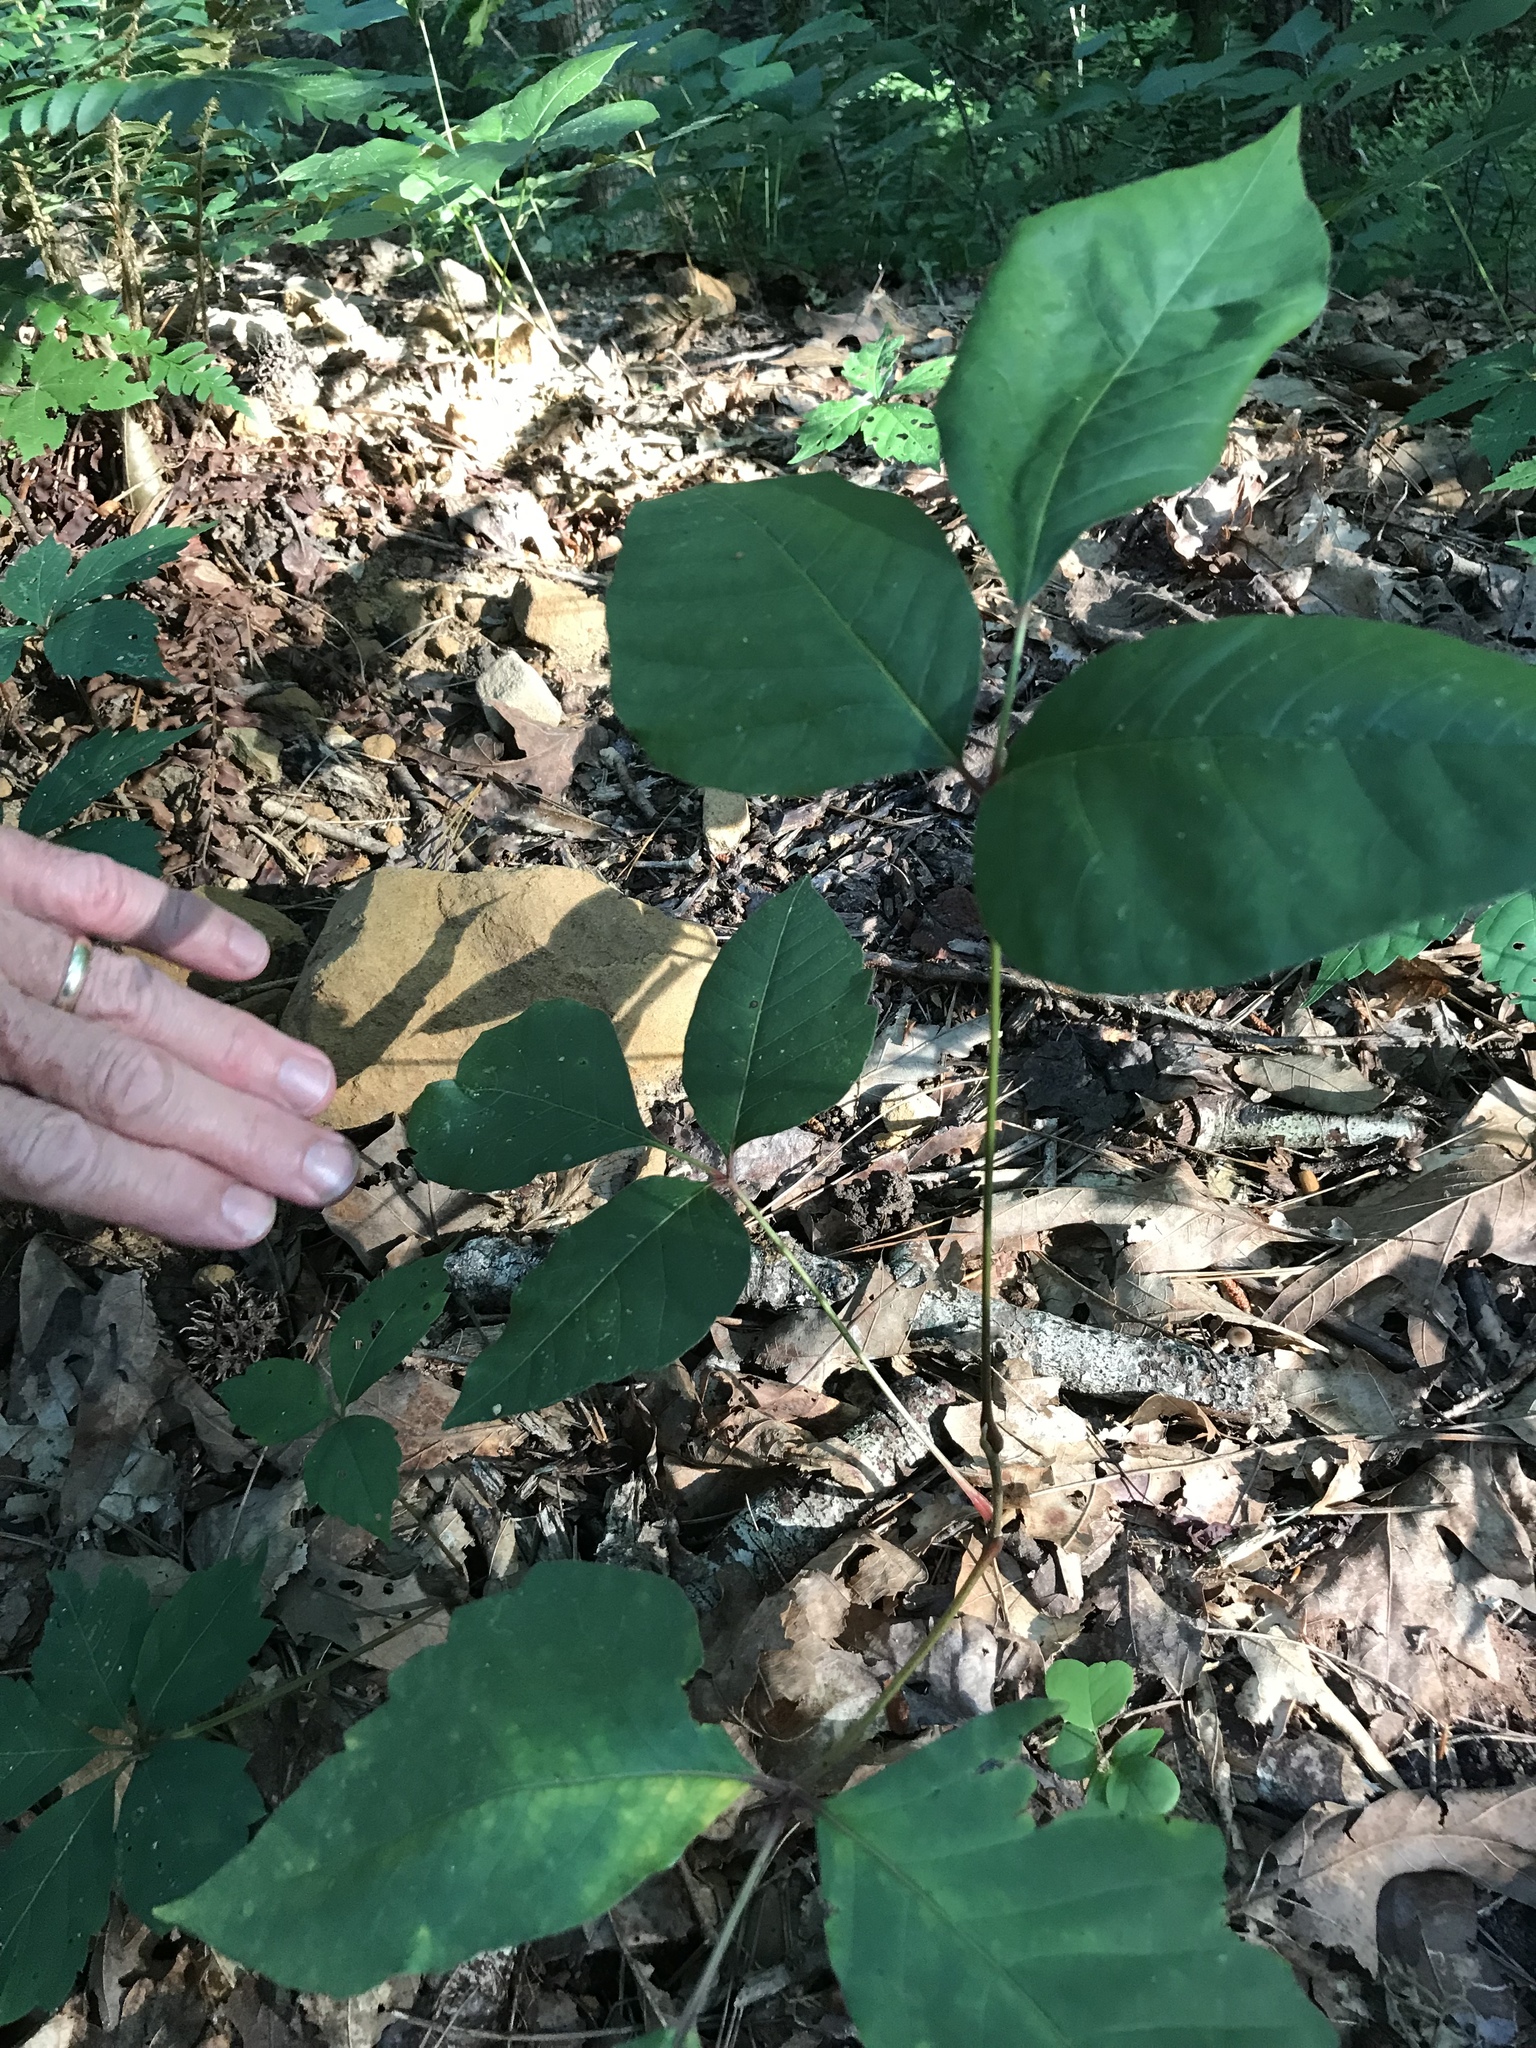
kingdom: Plantae
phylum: Tracheophyta
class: Magnoliopsida
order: Sapindales
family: Anacardiaceae
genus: Toxicodendron
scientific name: Toxicodendron radicans
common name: Poison ivy
